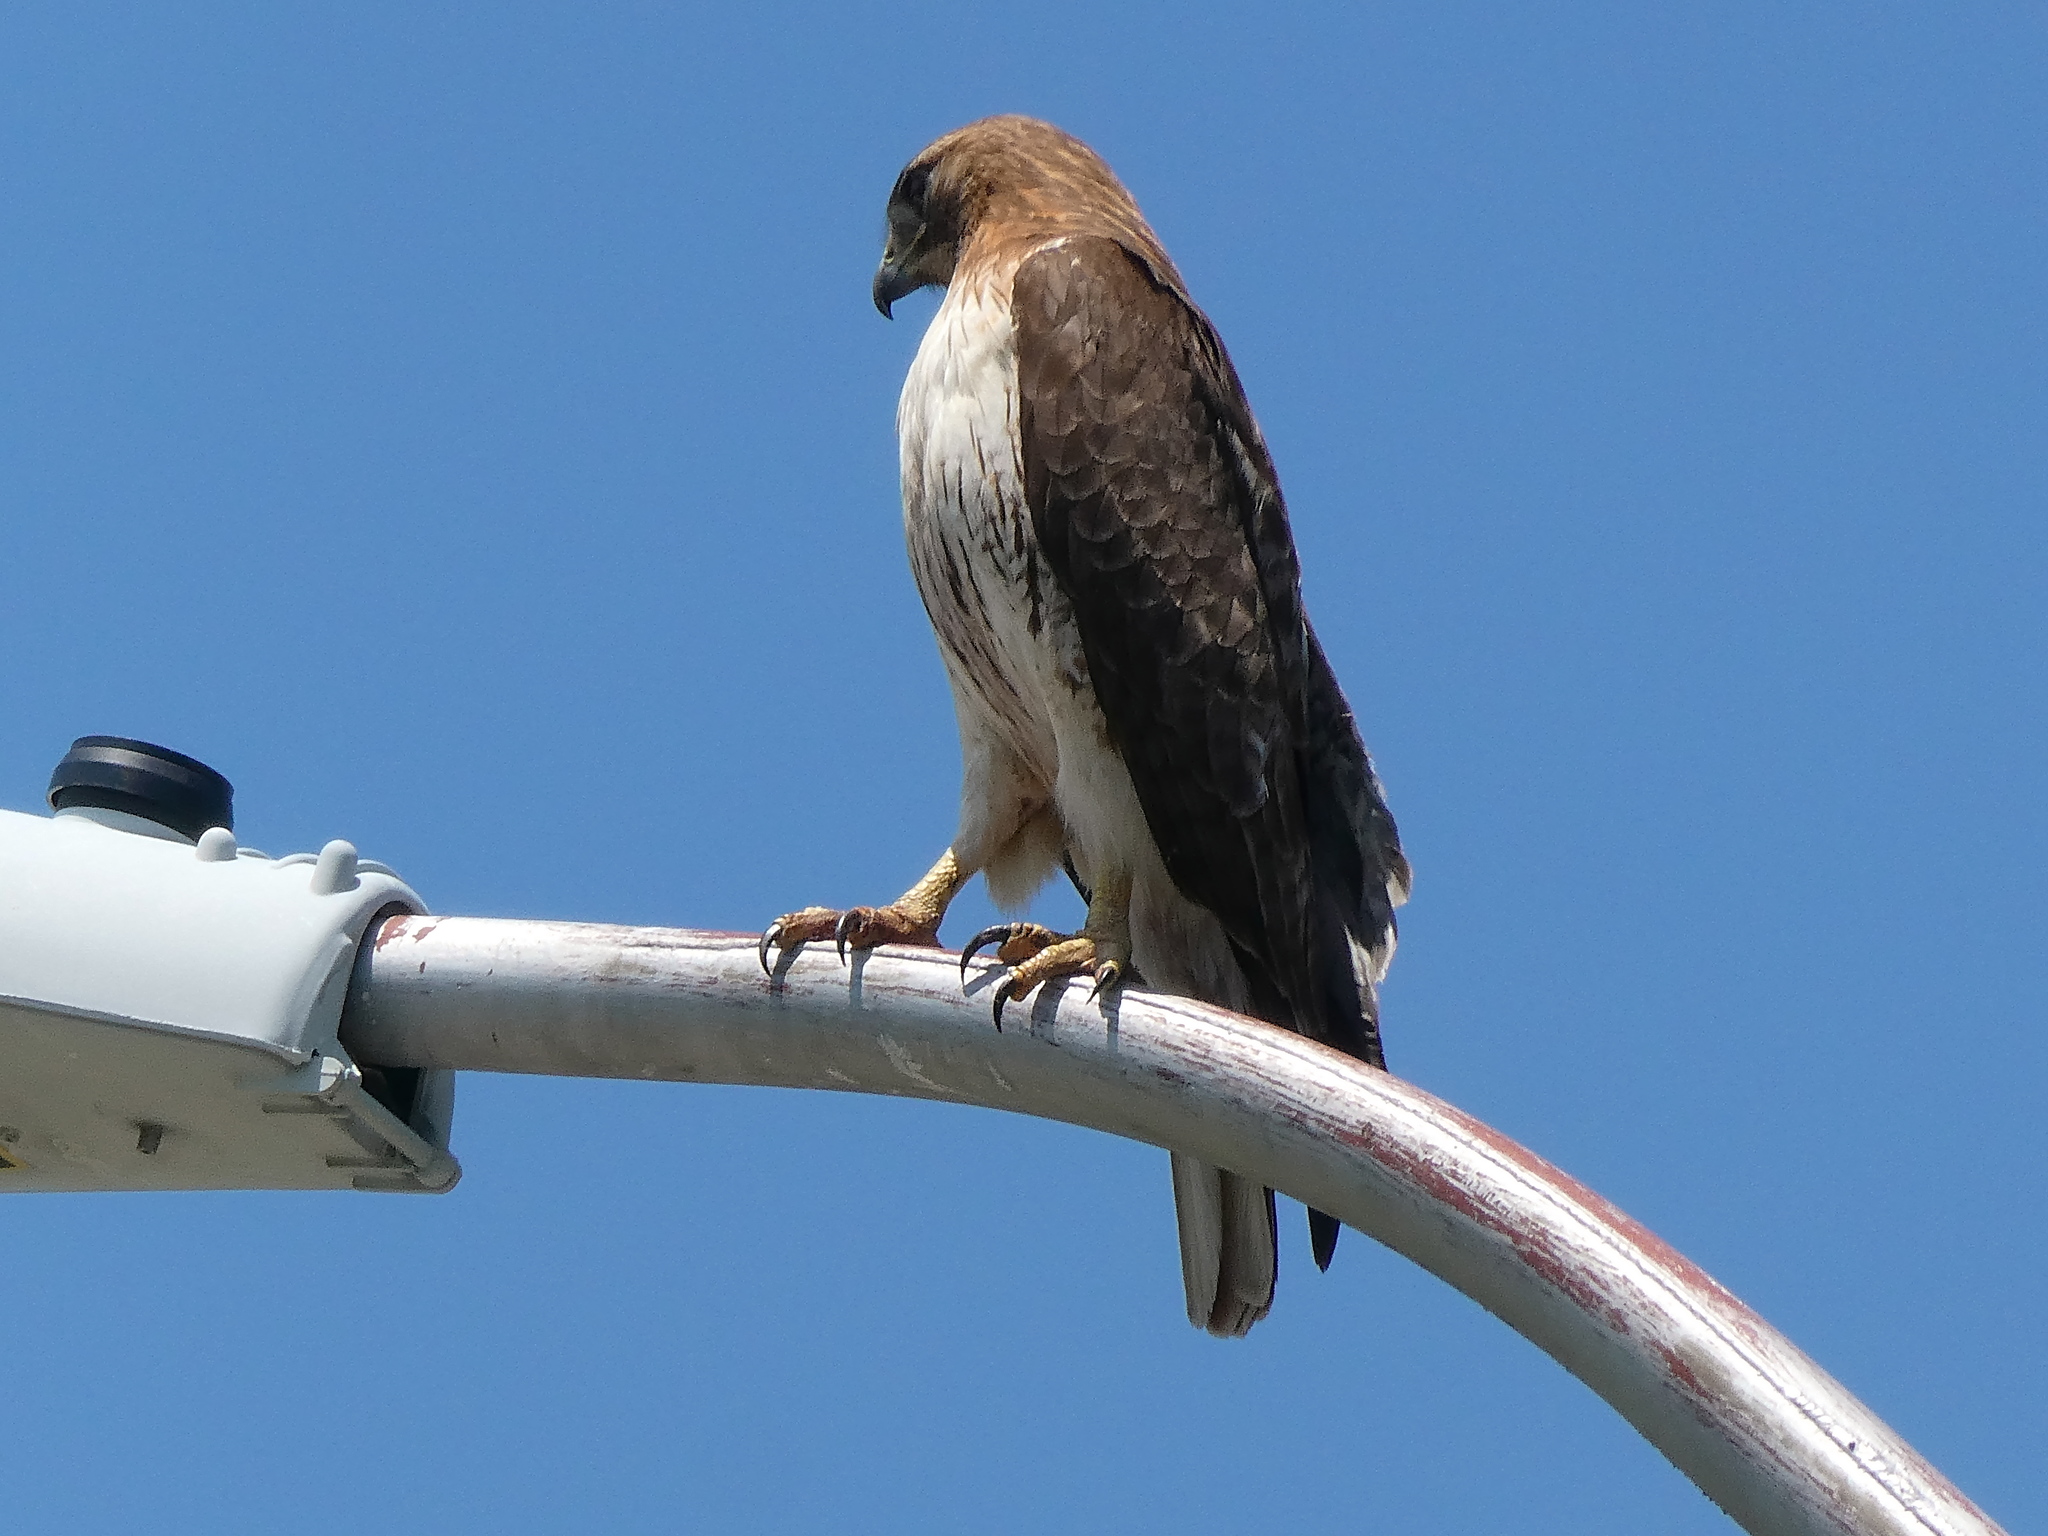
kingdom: Animalia
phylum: Chordata
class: Aves
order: Accipitriformes
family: Accipitridae
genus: Buteo
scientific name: Buteo jamaicensis
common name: Red-tailed hawk
